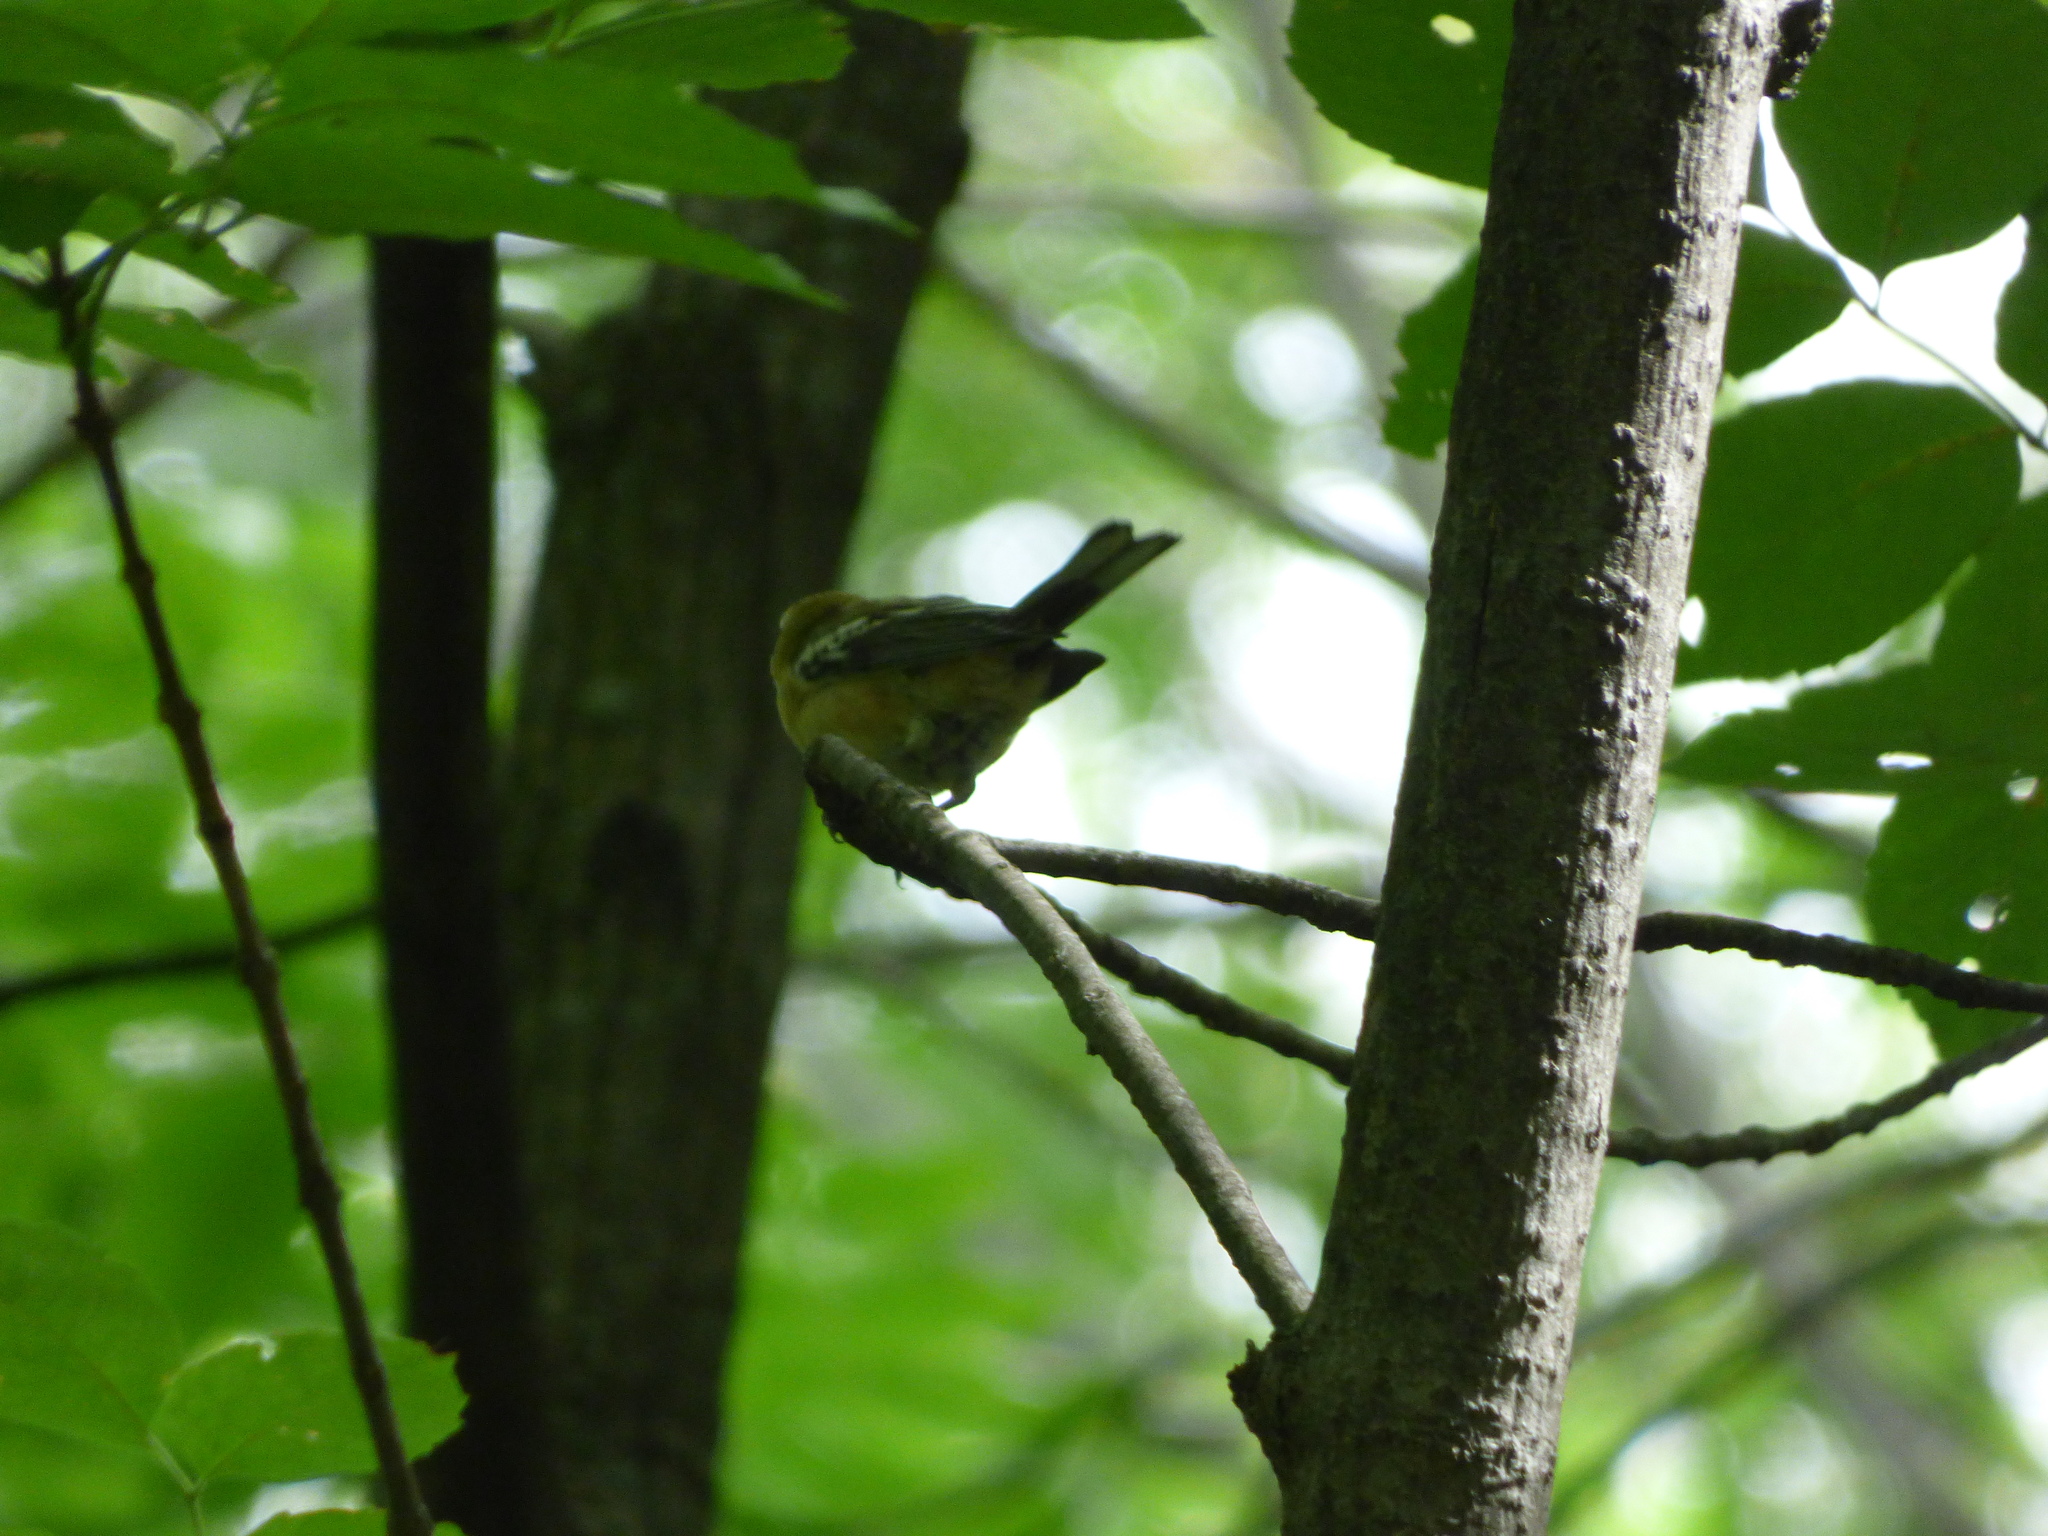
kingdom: Animalia
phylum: Chordata
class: Aves
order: Passeriformes
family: Parulidae
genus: Setophaga
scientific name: Setophaga castanea
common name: Bay-breasted warbler
